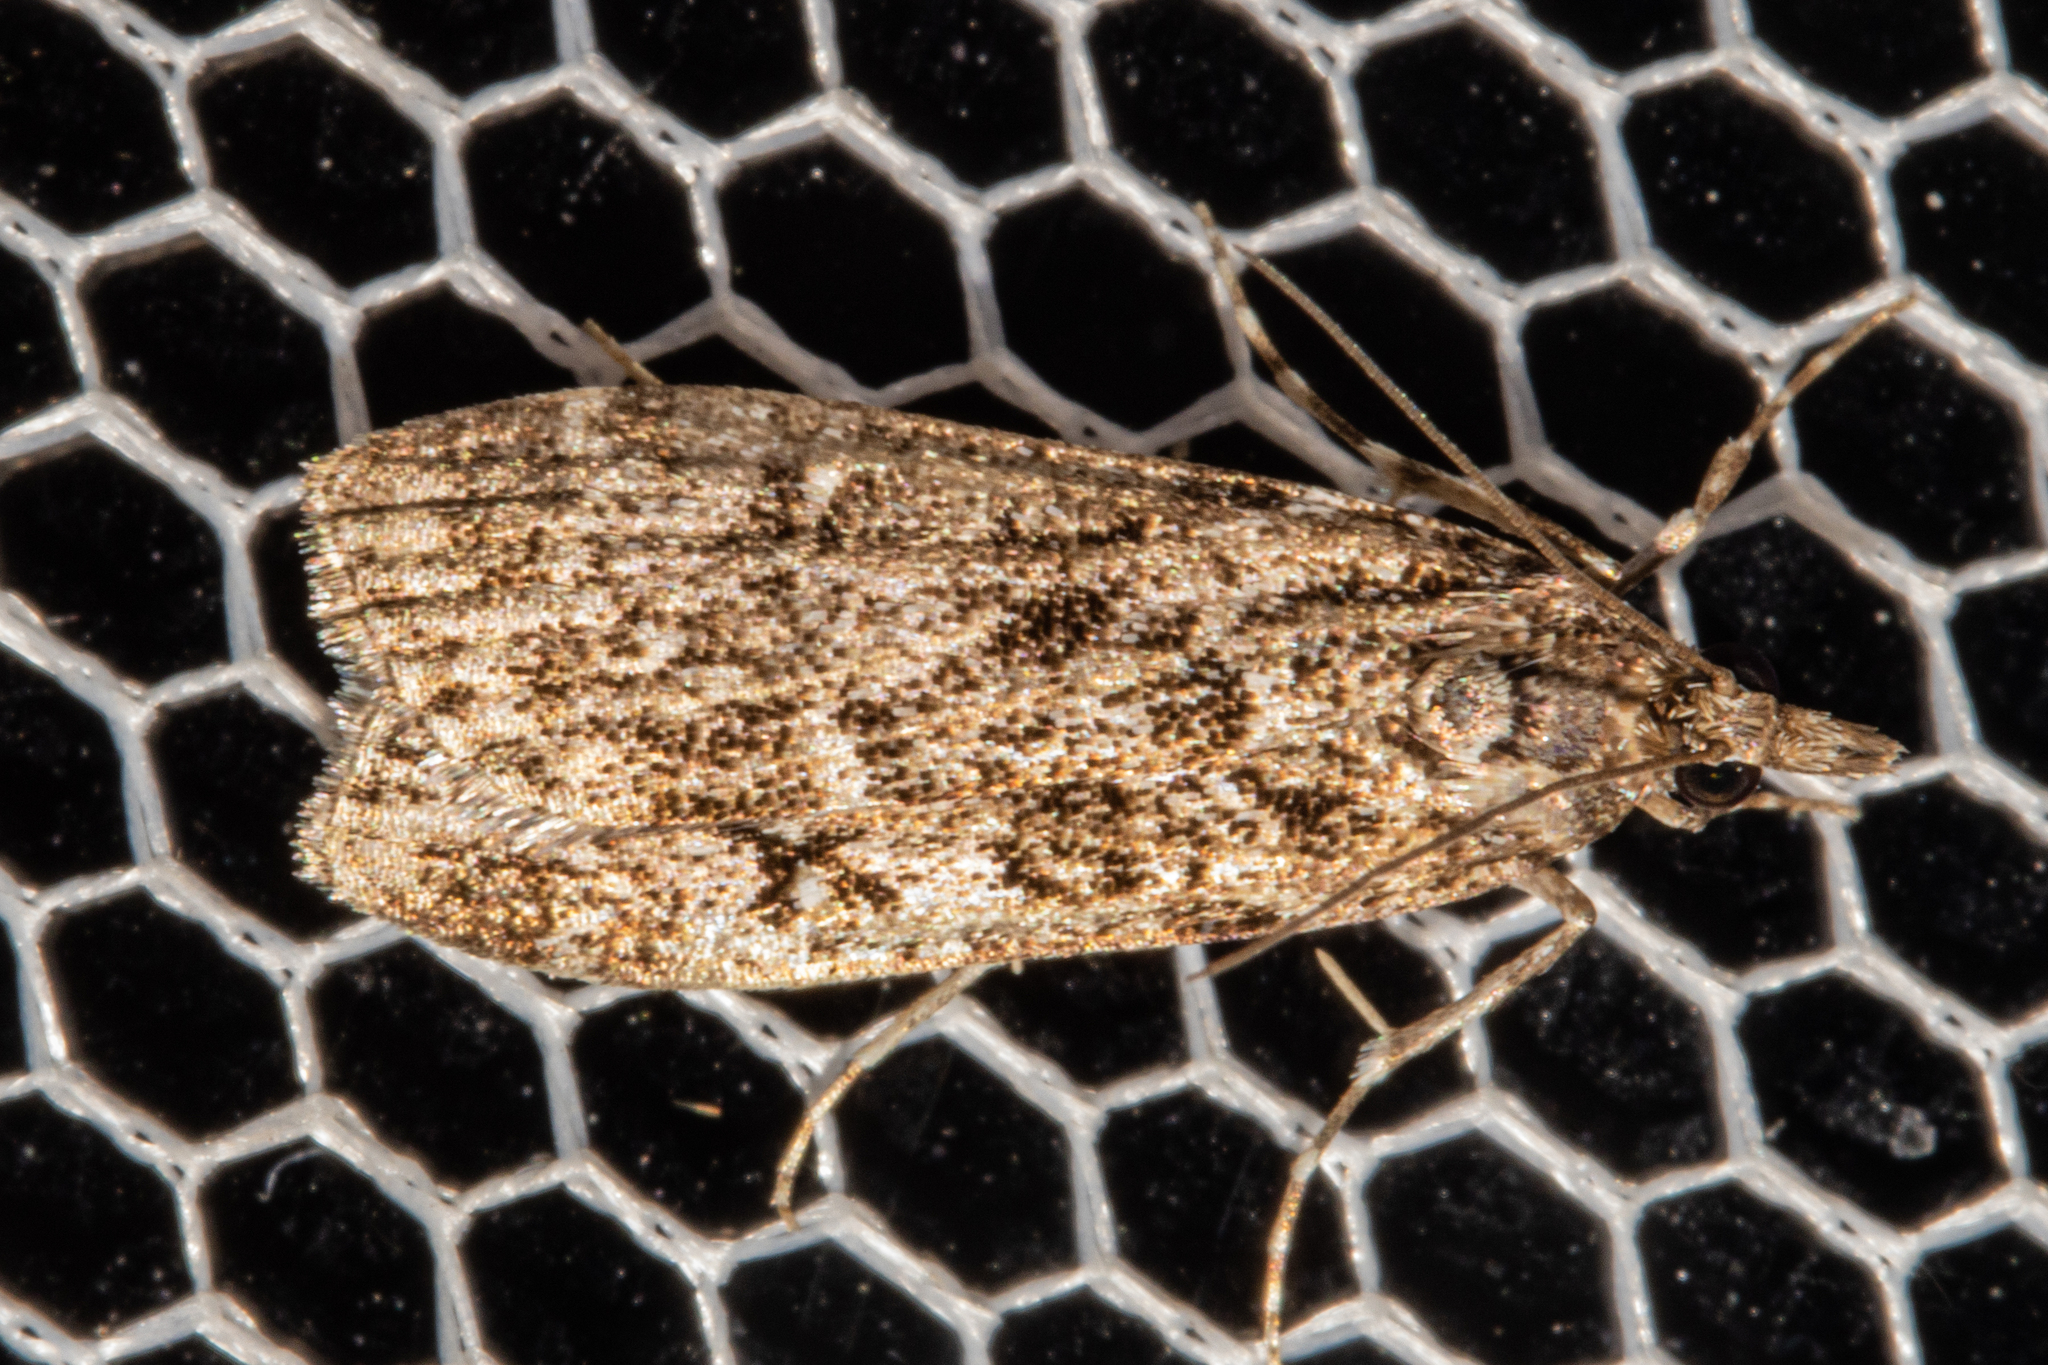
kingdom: Animalia
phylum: Arthropoda
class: Insecta
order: Lepidoptera
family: Crambidae
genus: Eudonia
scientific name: Eudonia philerga
